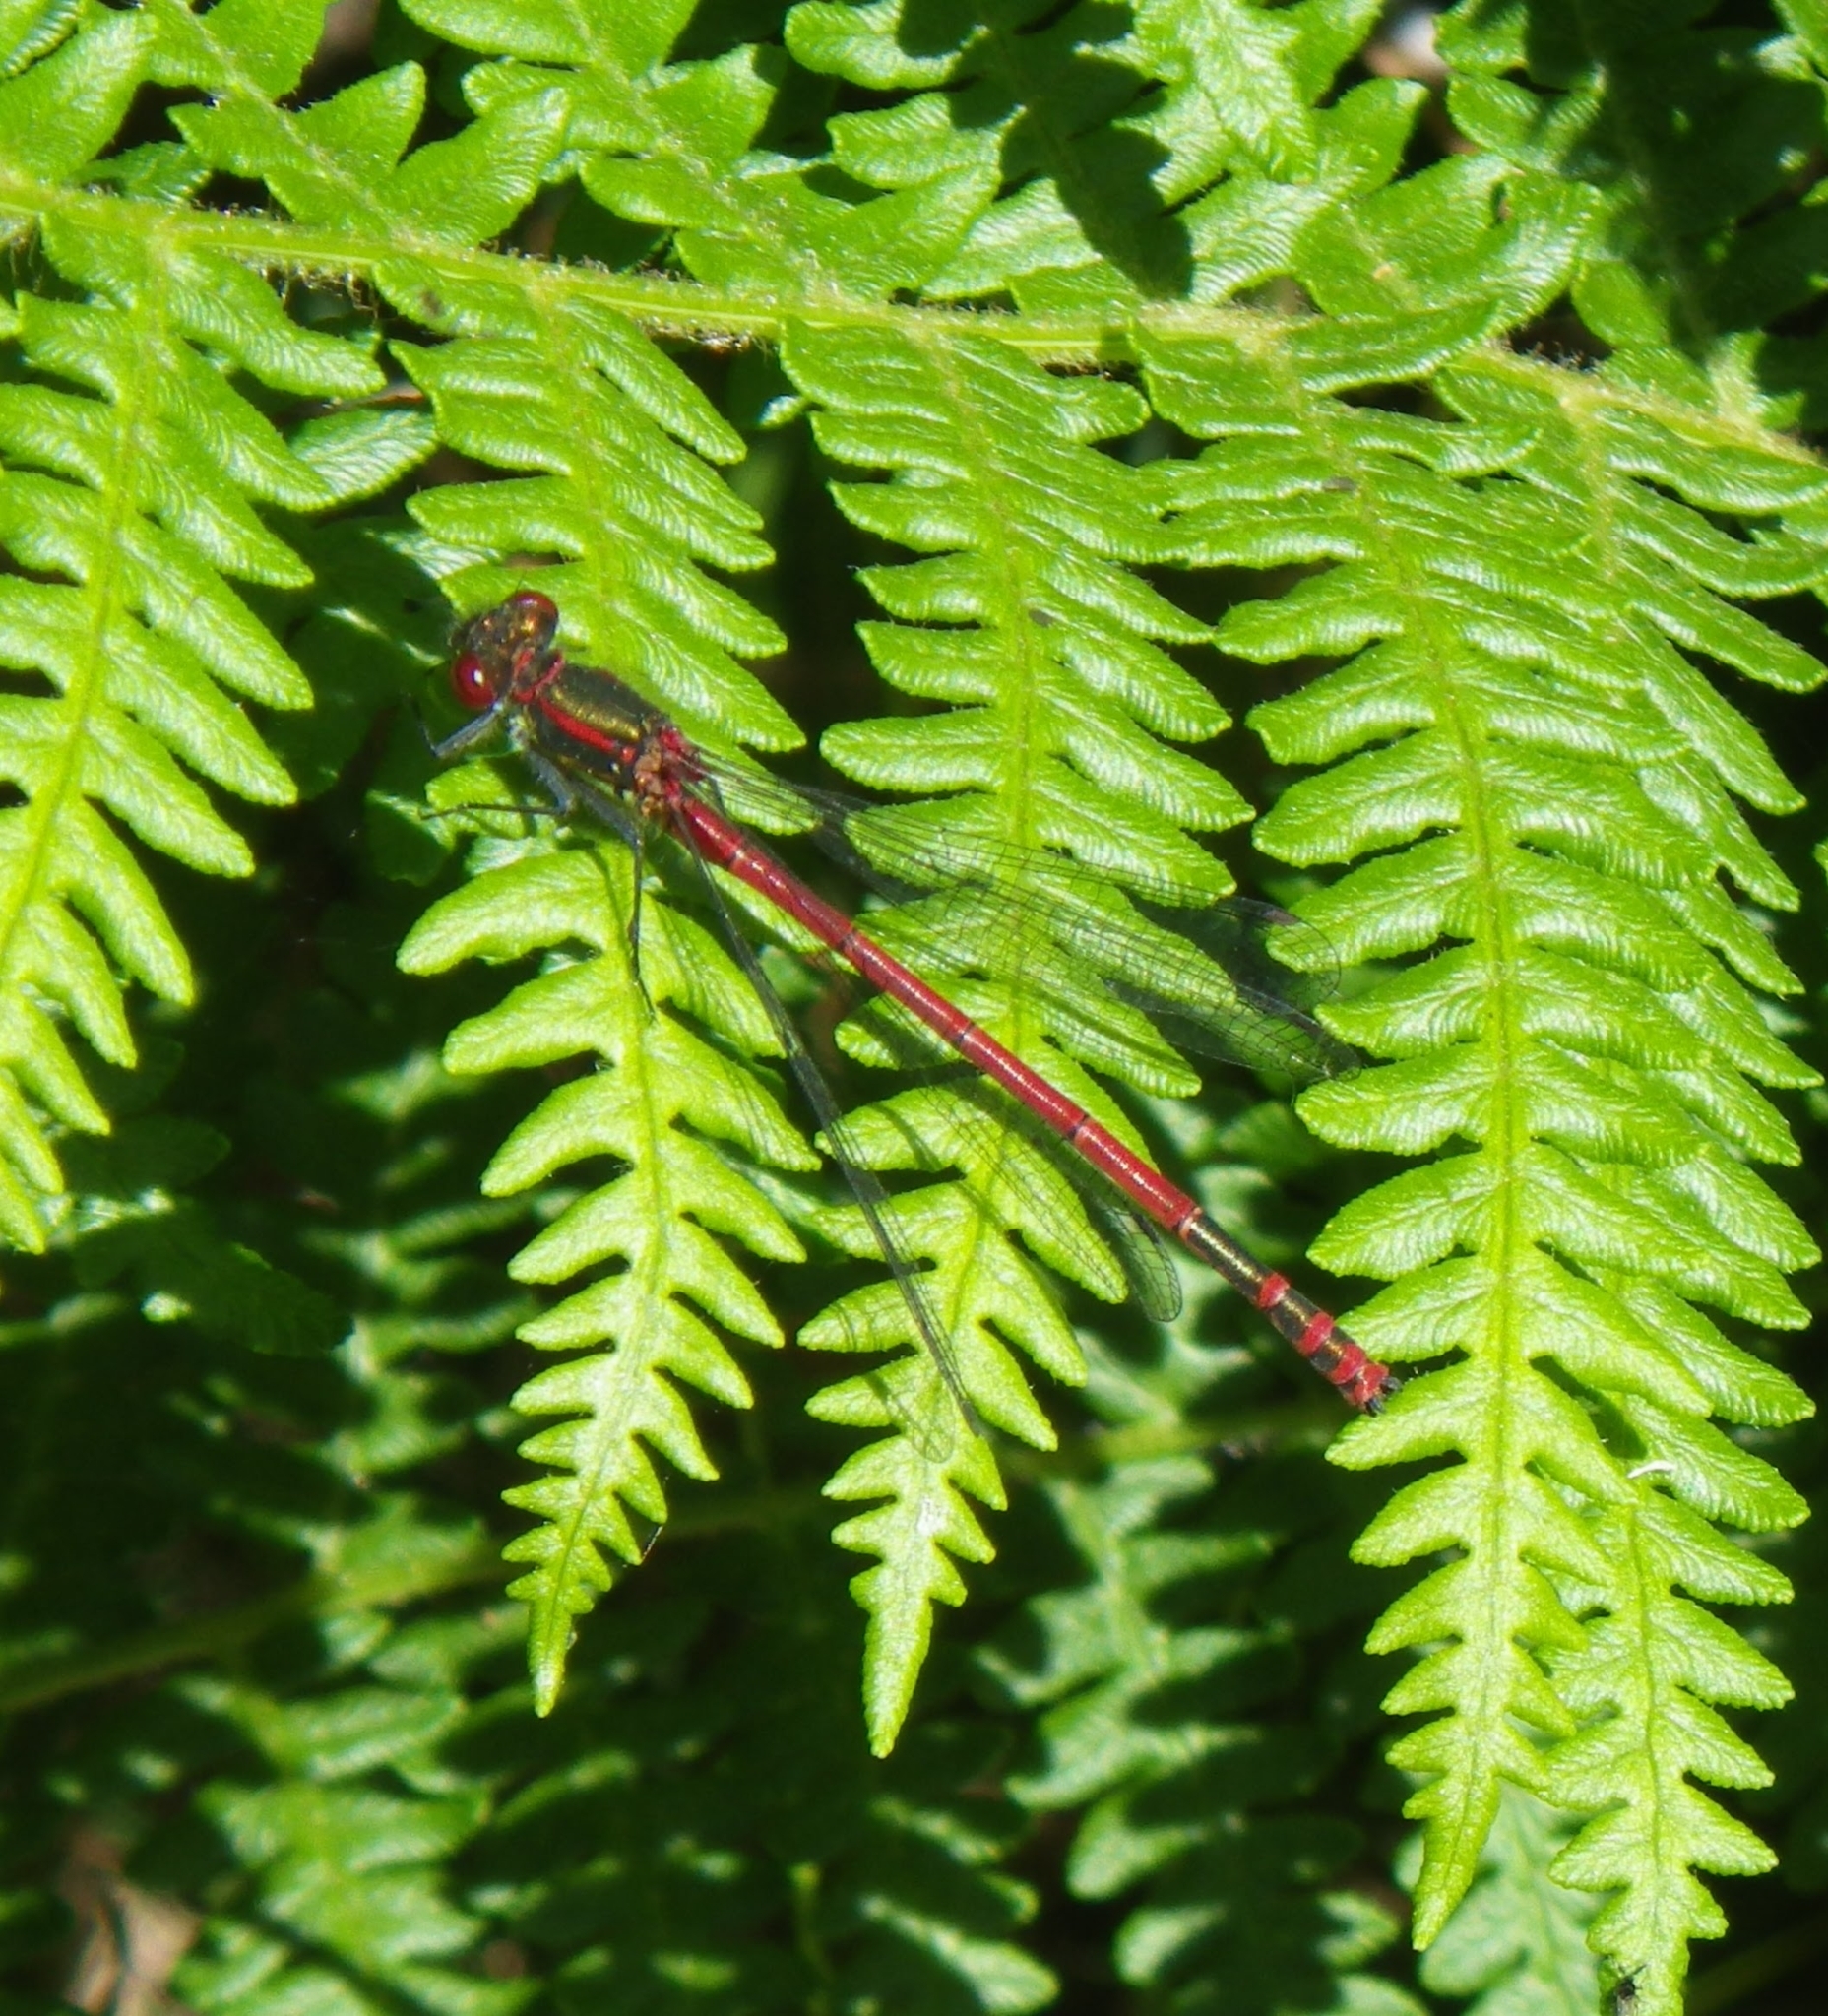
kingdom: Animalia
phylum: Arthropoda
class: Insecta
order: Odonata
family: Coenagrionidae
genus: Pyrrhosoma
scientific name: Pyrrhosoma nymphula
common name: Large red damsel
